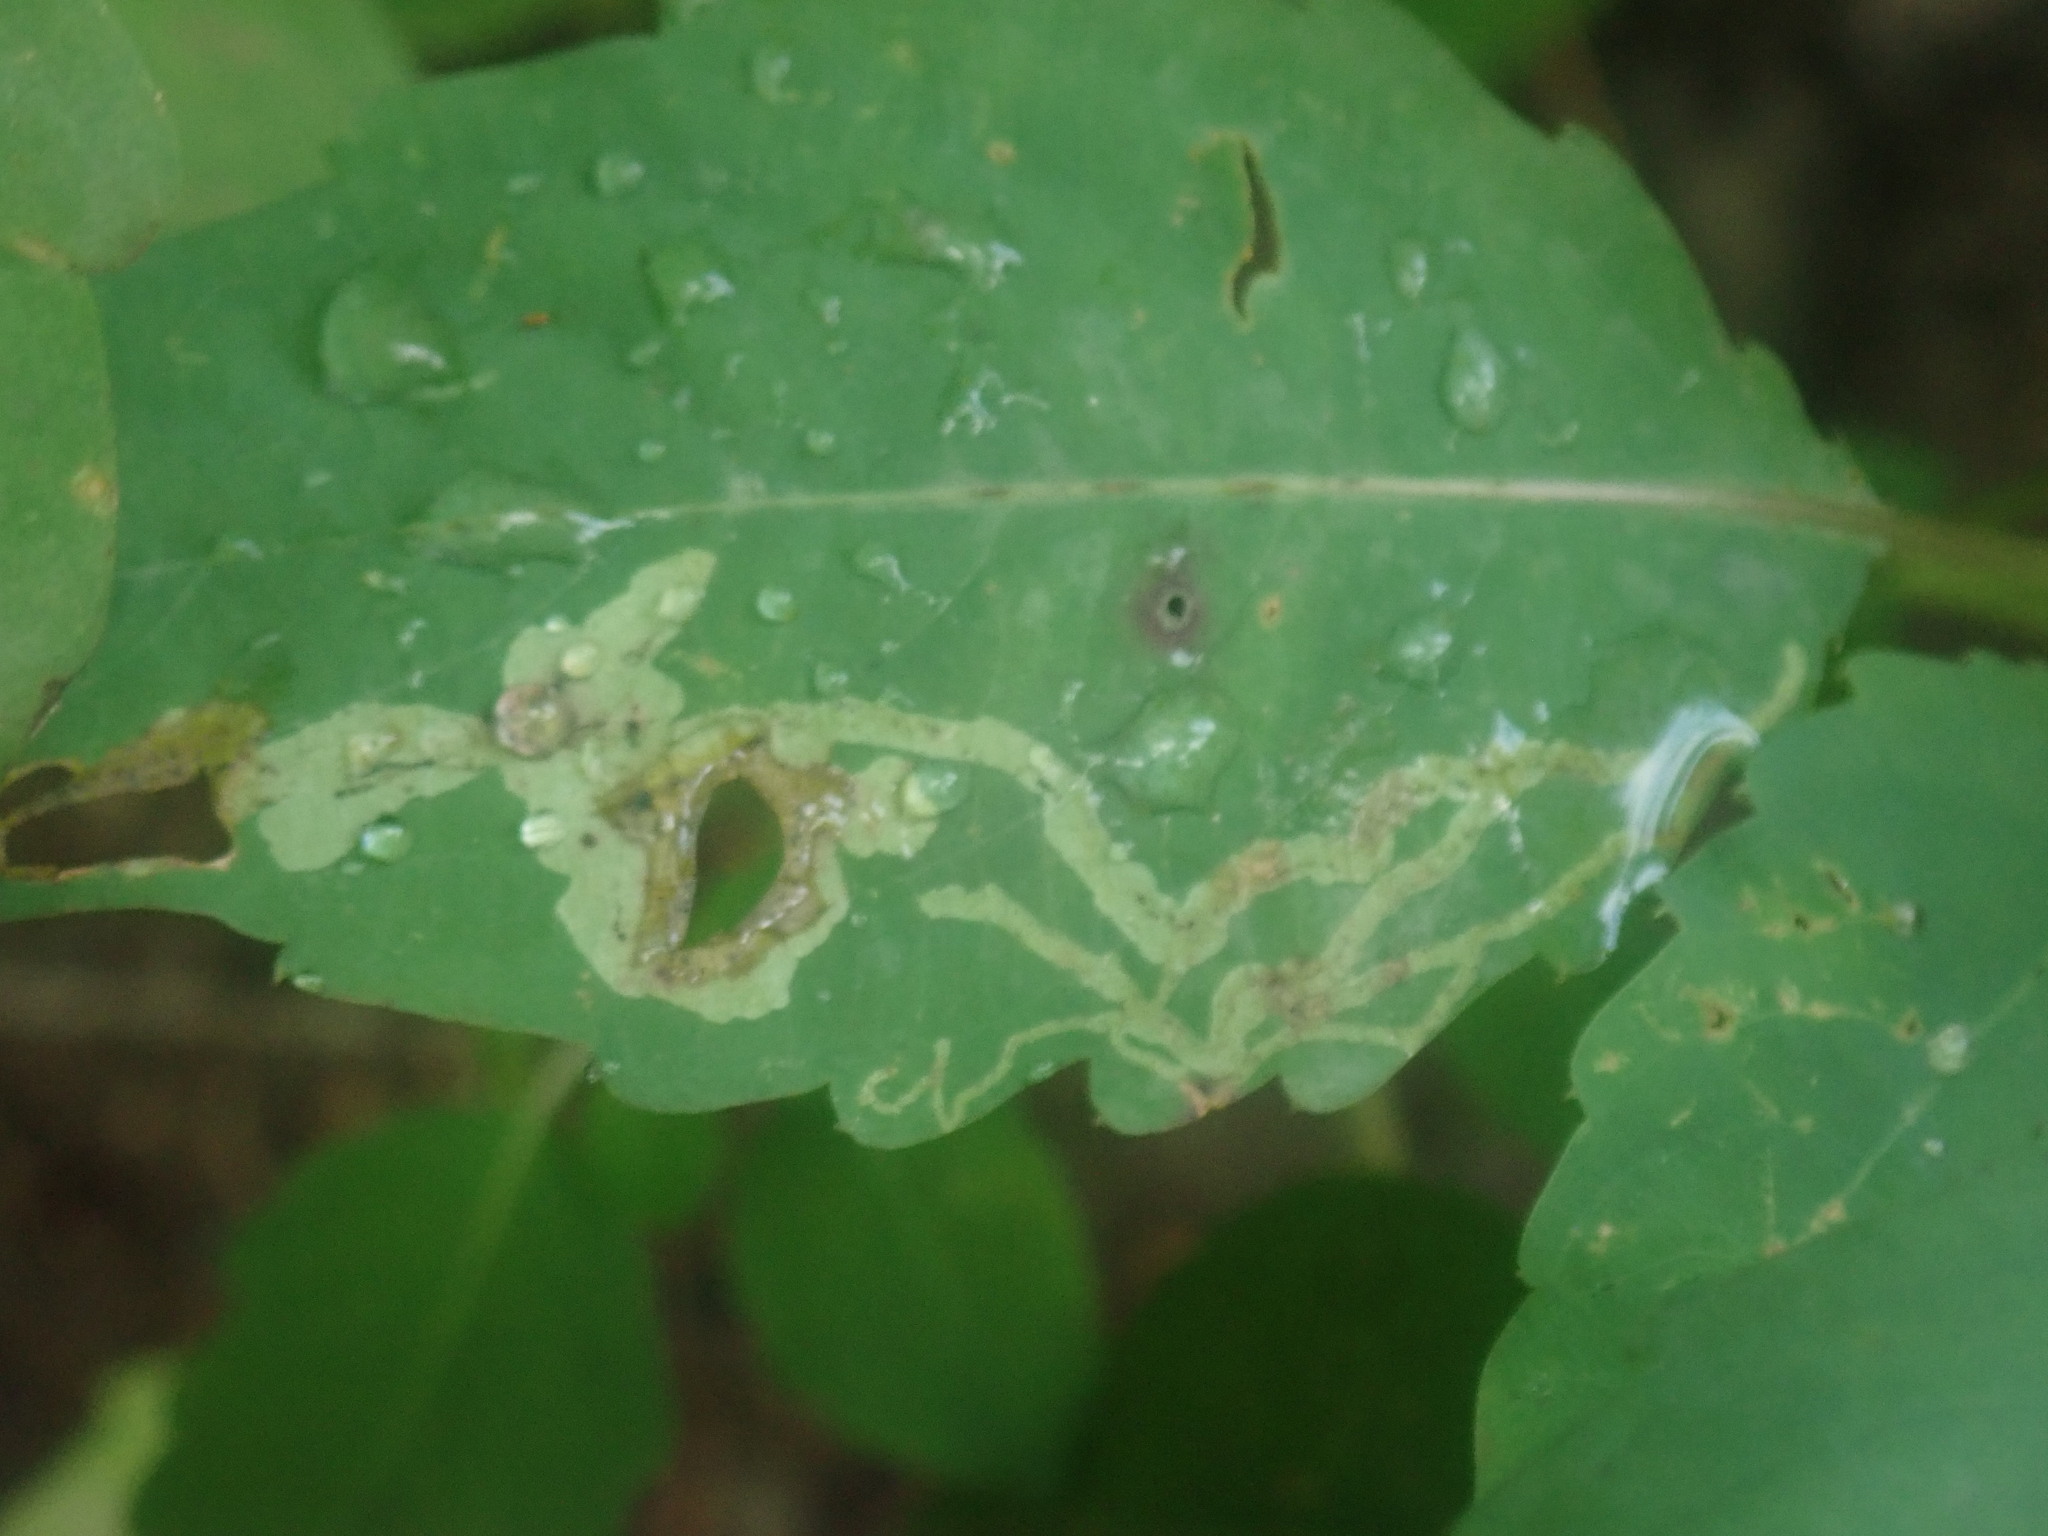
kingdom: Animalia
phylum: Arthropoda
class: Insecta
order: Diptera
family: Agromyzidae
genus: Phytoliriomyza
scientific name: Phytoliriomyza melampyga
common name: Jewelweed leaf-miner fly
